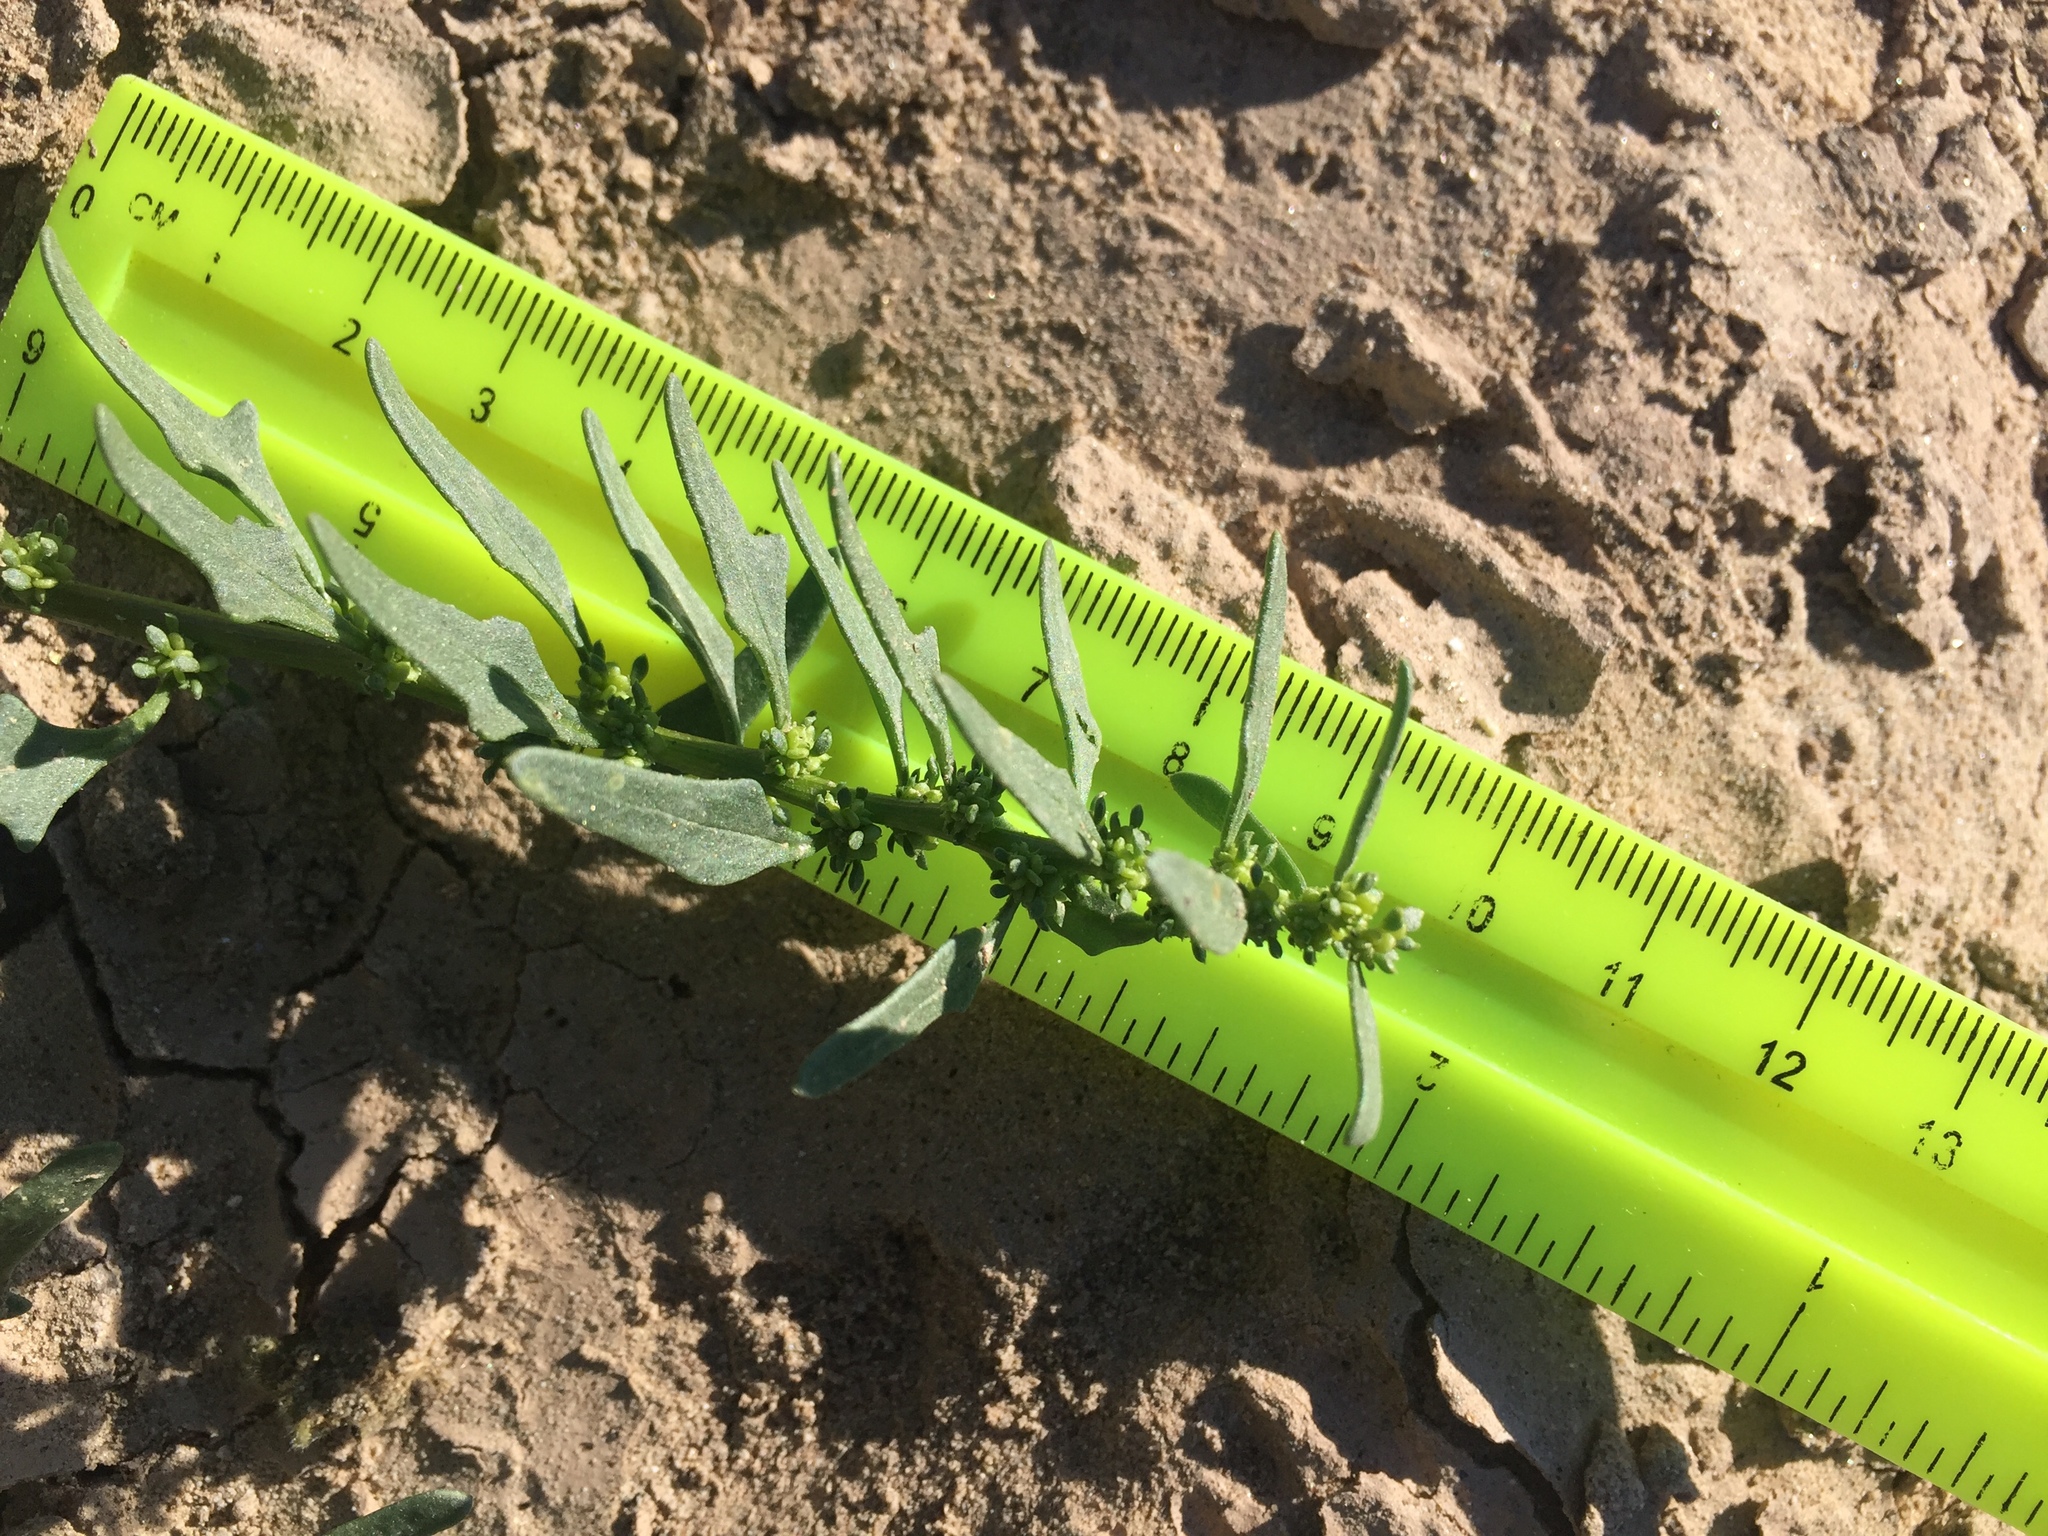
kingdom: Plantae
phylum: Tracheophyta
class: Magnoliopsida
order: Caryophyllales
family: Amaranthaceae
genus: Blitum
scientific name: Blitum nuttallianum
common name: Poverty-weed
